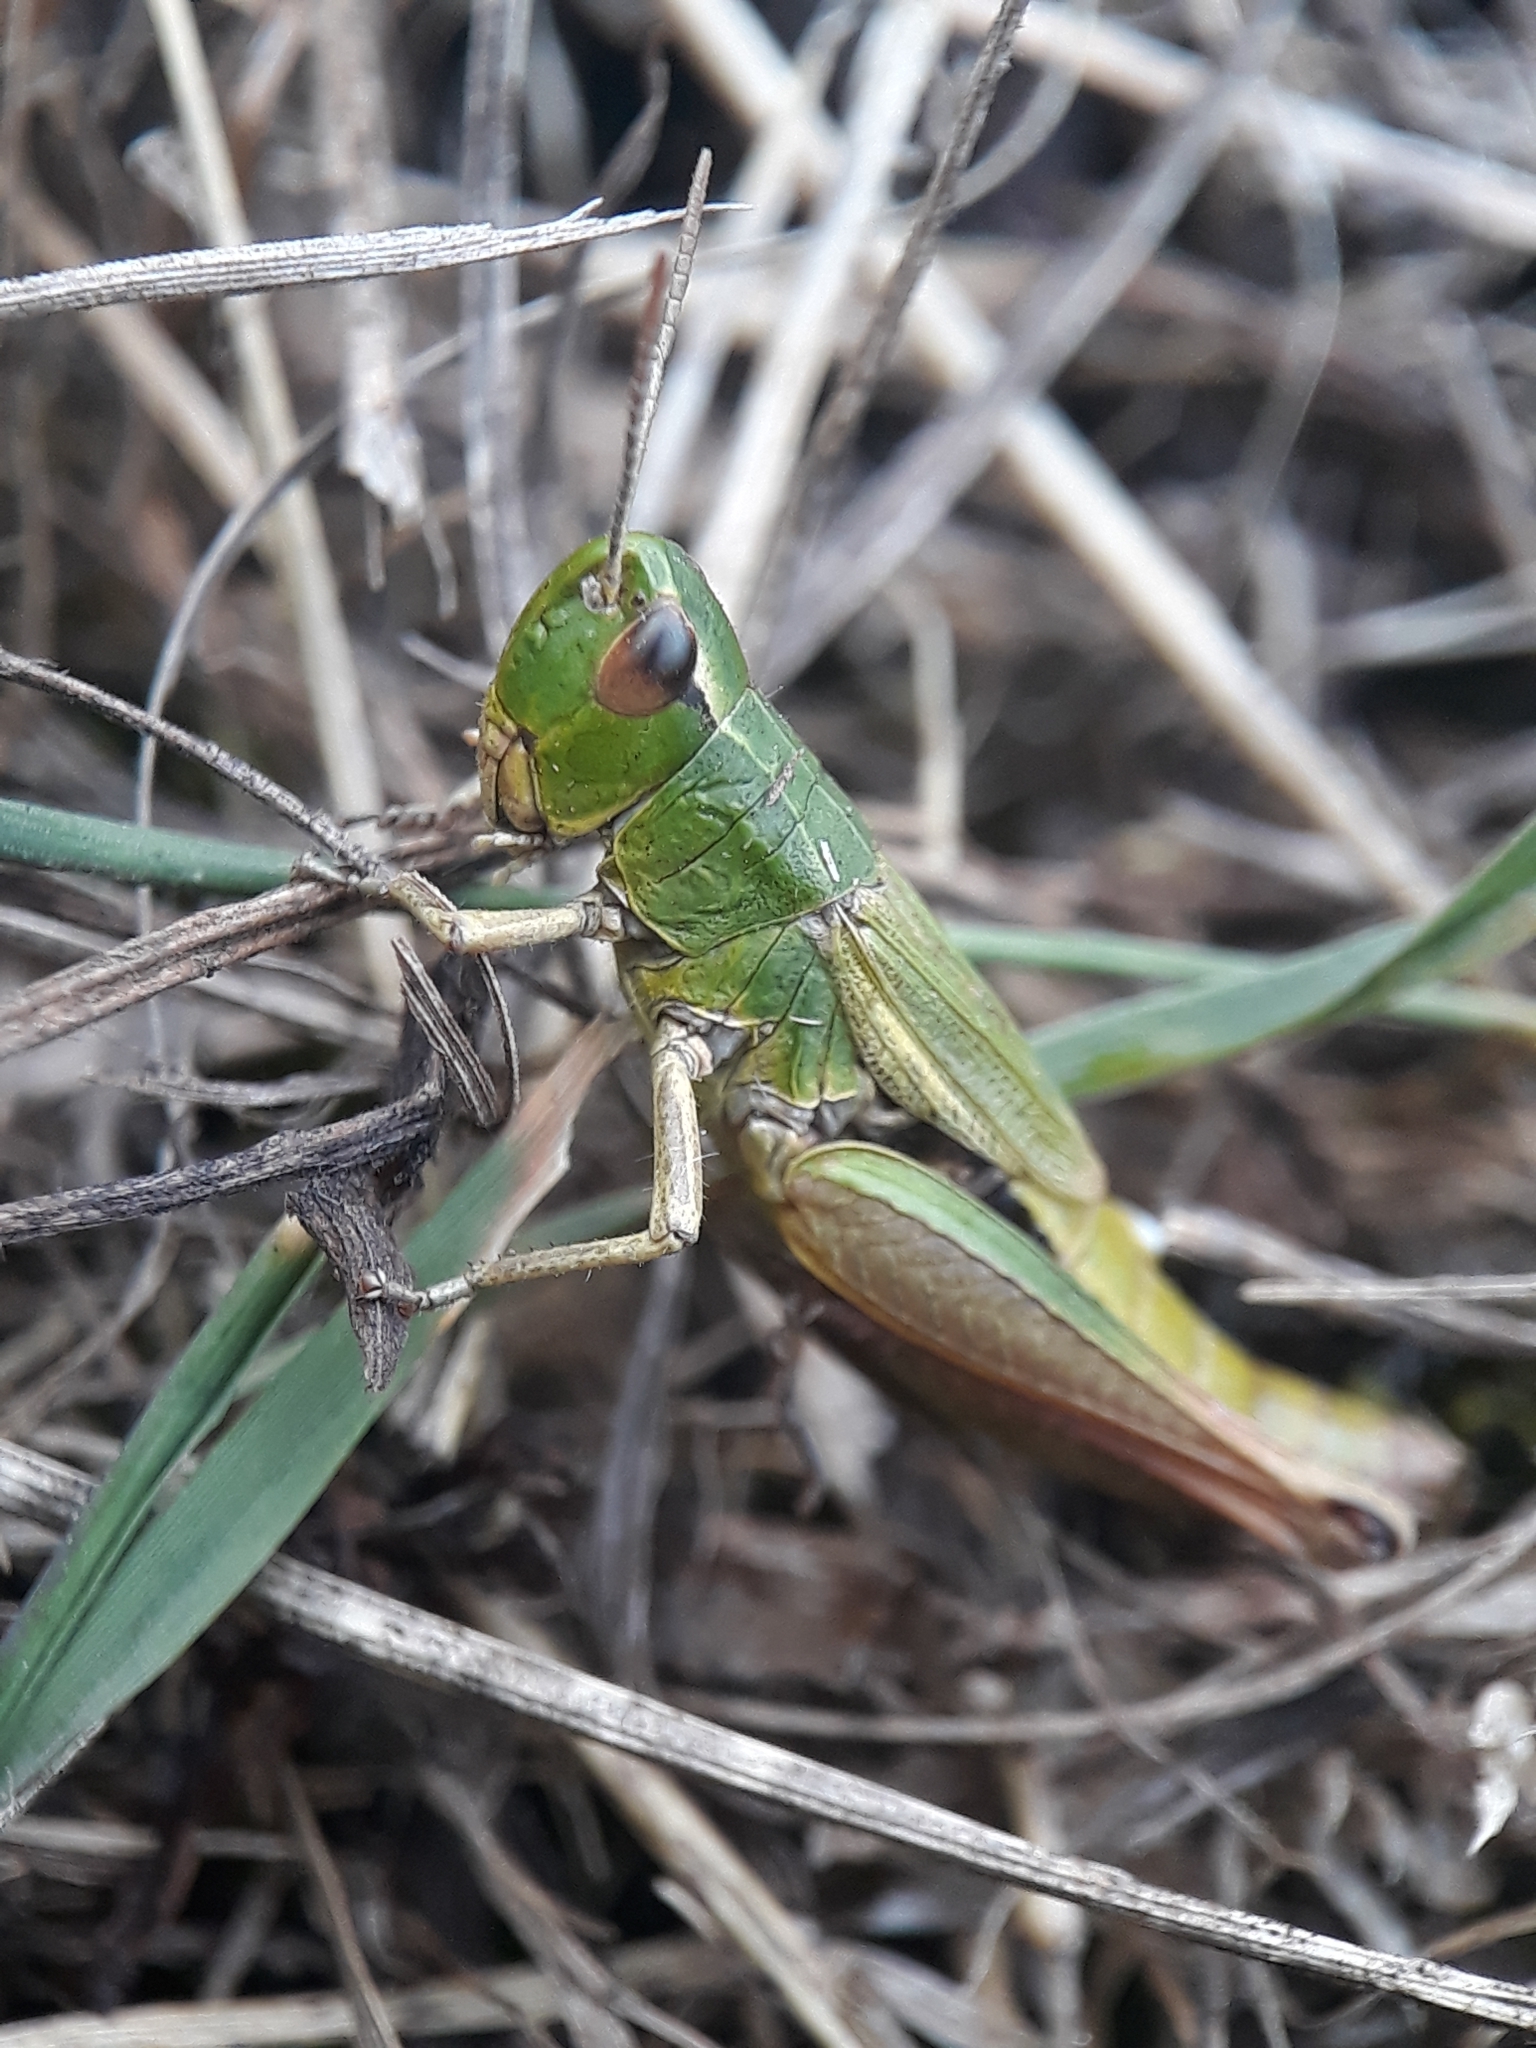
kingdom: Animalia
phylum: Arthropoda
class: Insecta
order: Orthoptera
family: Acrididae
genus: Pseudochorthippus
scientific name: Pseudochorthippus parallelus
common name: Meadow grasshopper
